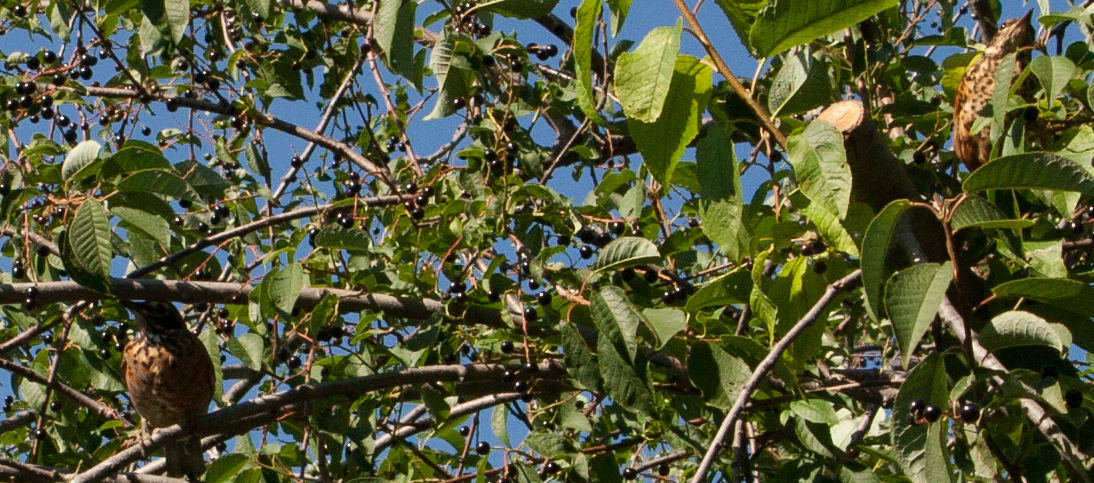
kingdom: Animalia
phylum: Chordata
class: Aves
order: Passeriformes
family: Turdidae
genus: Turdus
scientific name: Turdus migratorius
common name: American robin
